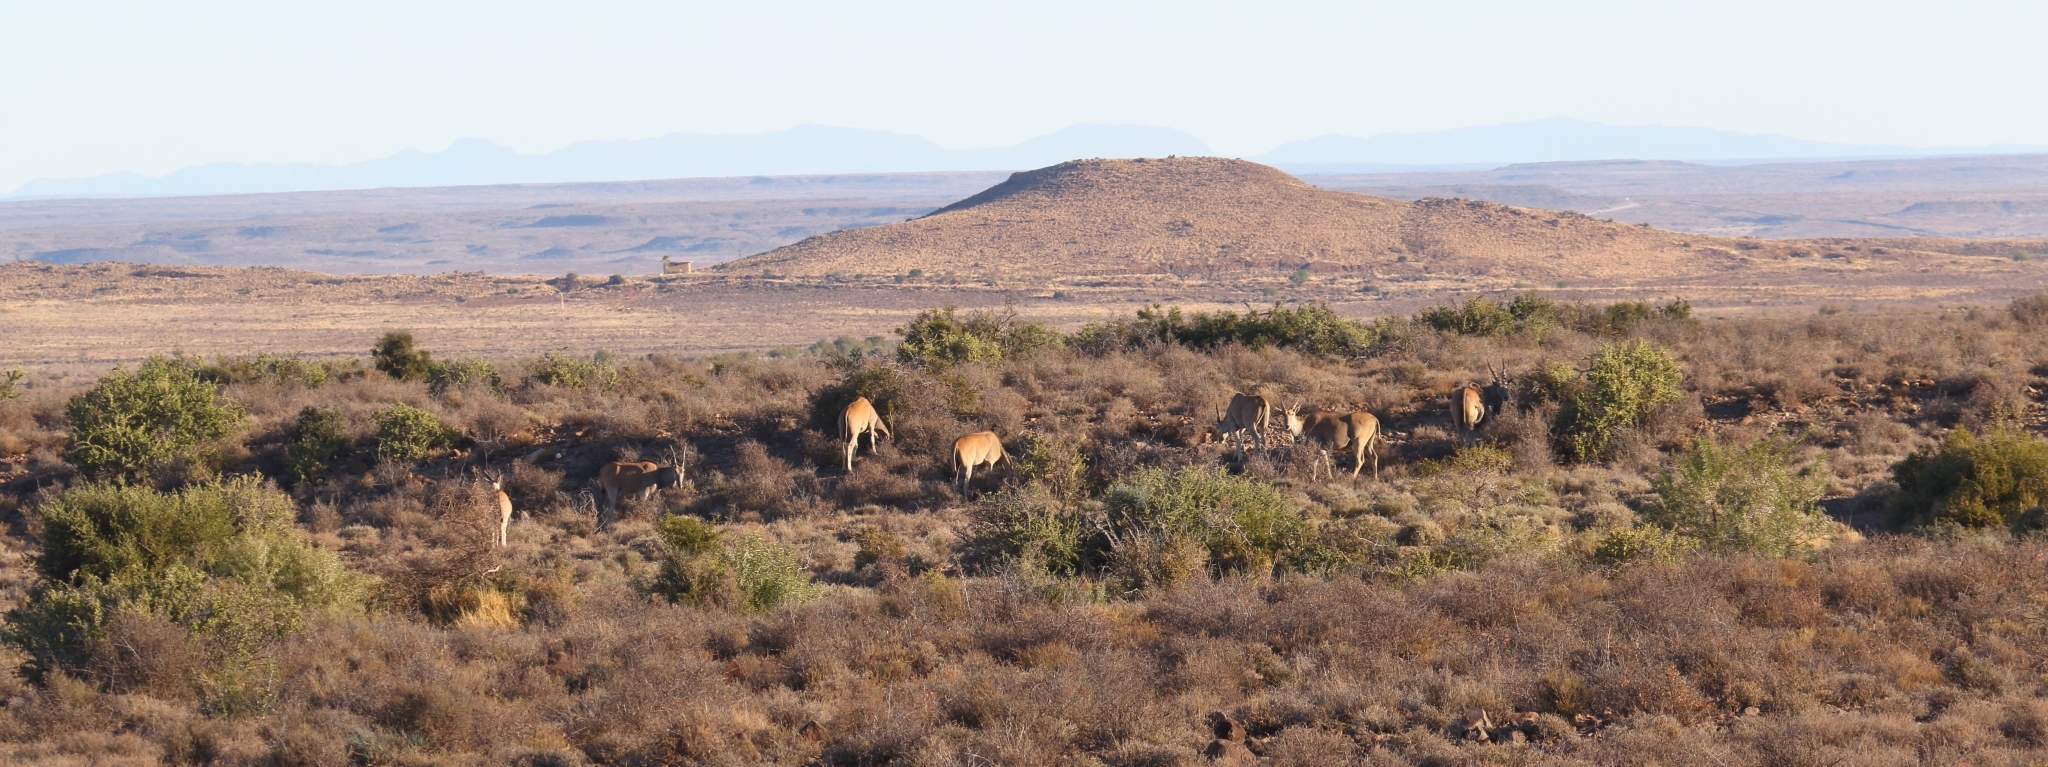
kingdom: Animalia
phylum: Chordata
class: Mammalia
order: Artiodactyla
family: Bovidae
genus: Taurotragus
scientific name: Taurotragus oryx
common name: Common eland
